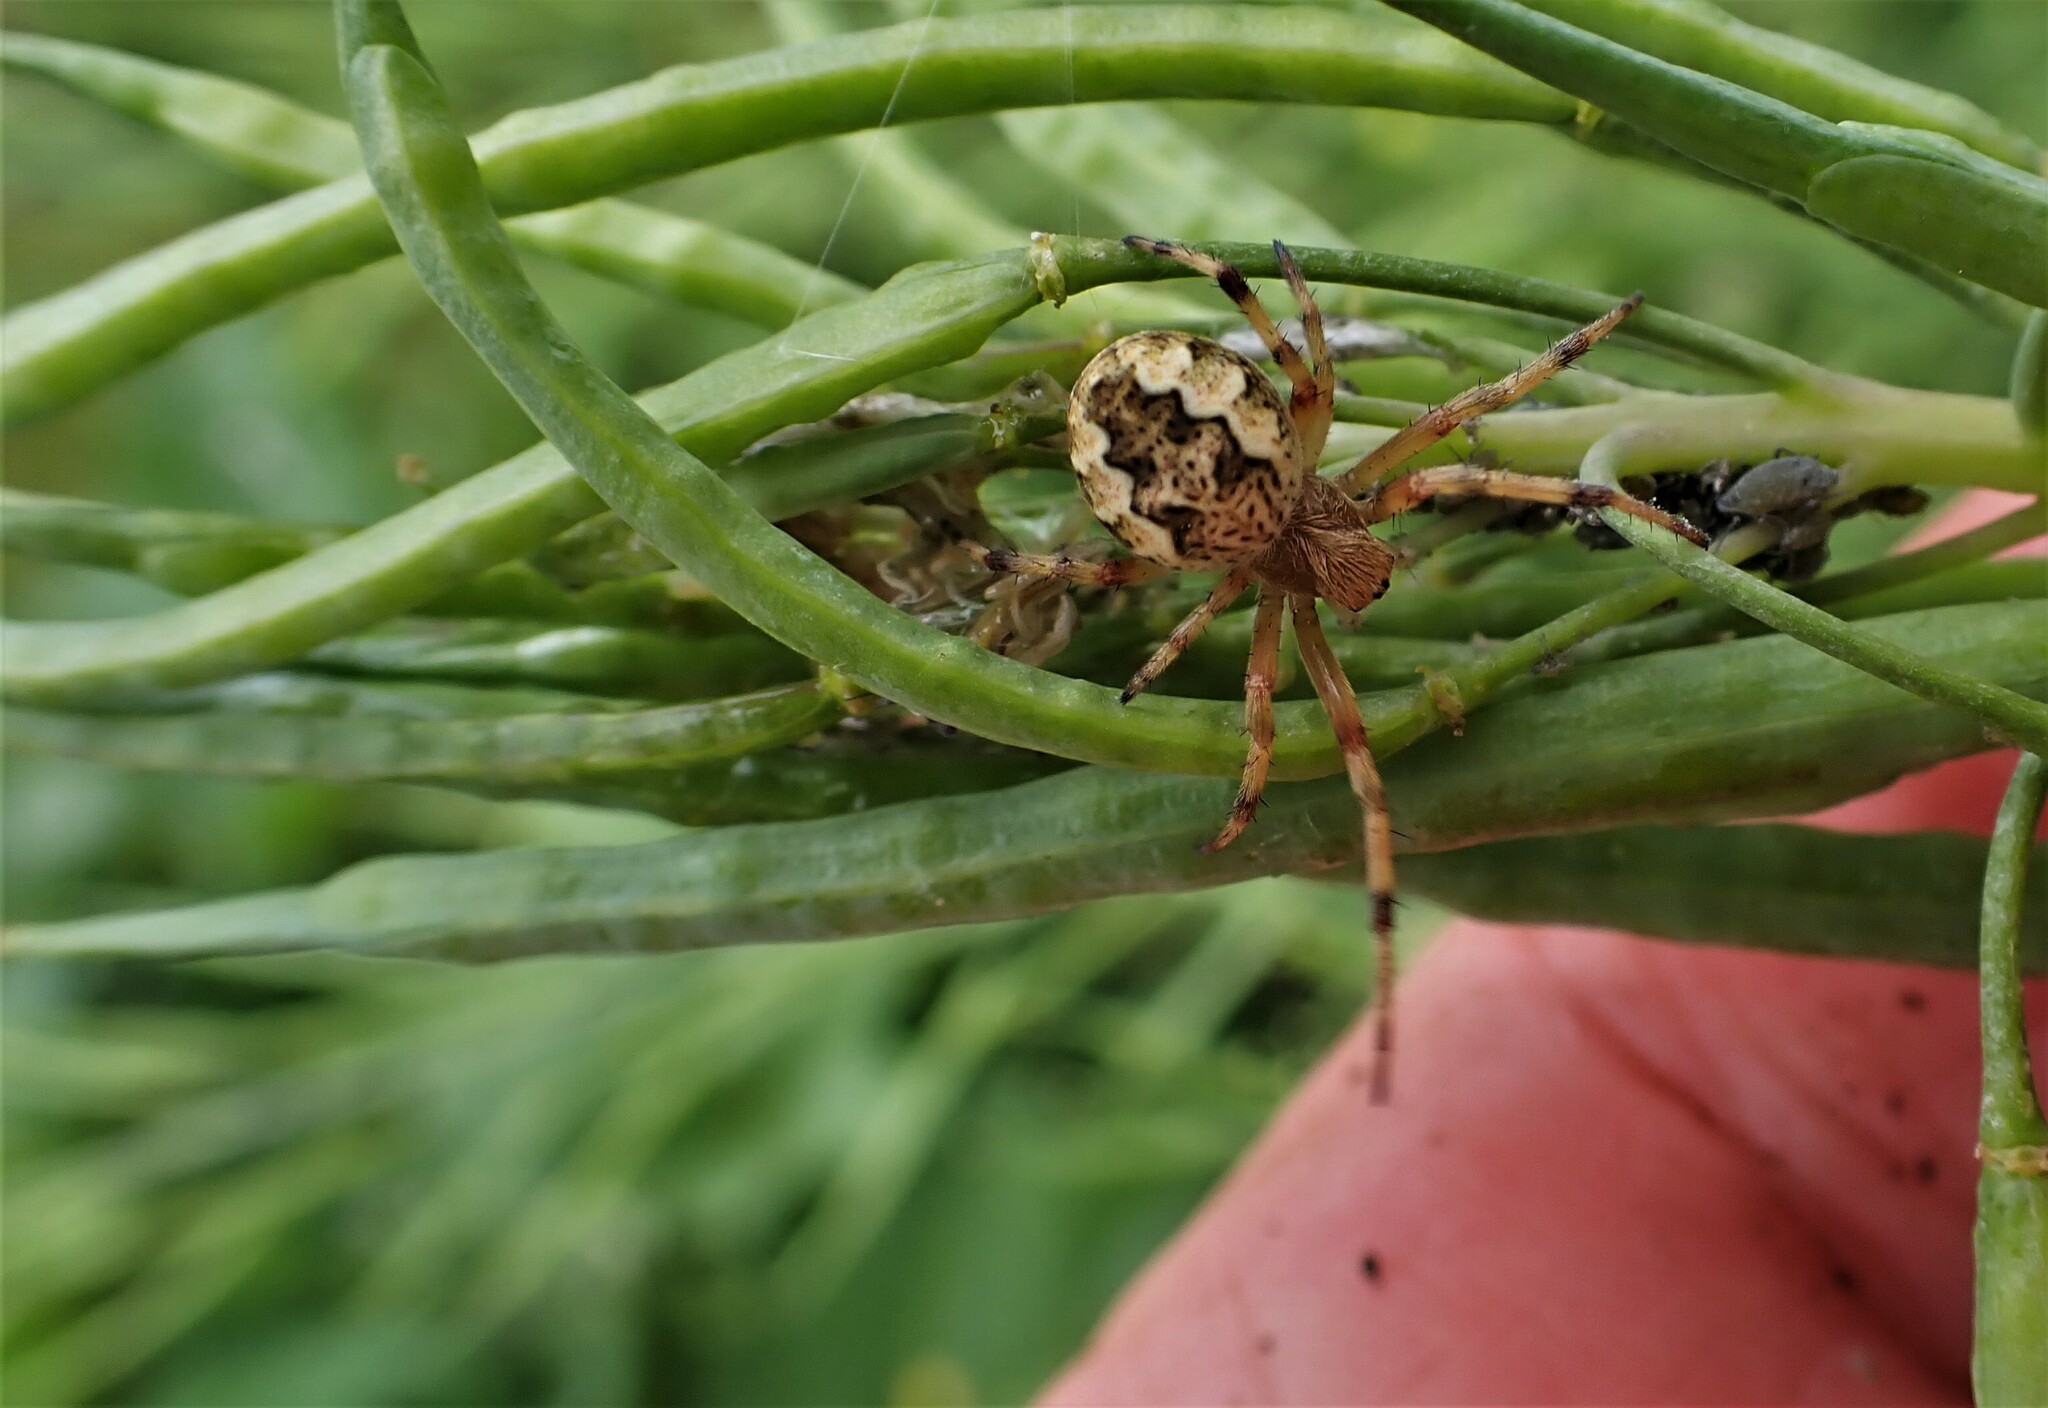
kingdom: Animalia
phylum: Arthropoda
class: Arachnida
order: Araneae
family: Araneidae
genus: Salsa
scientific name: Salsa fuliginata
